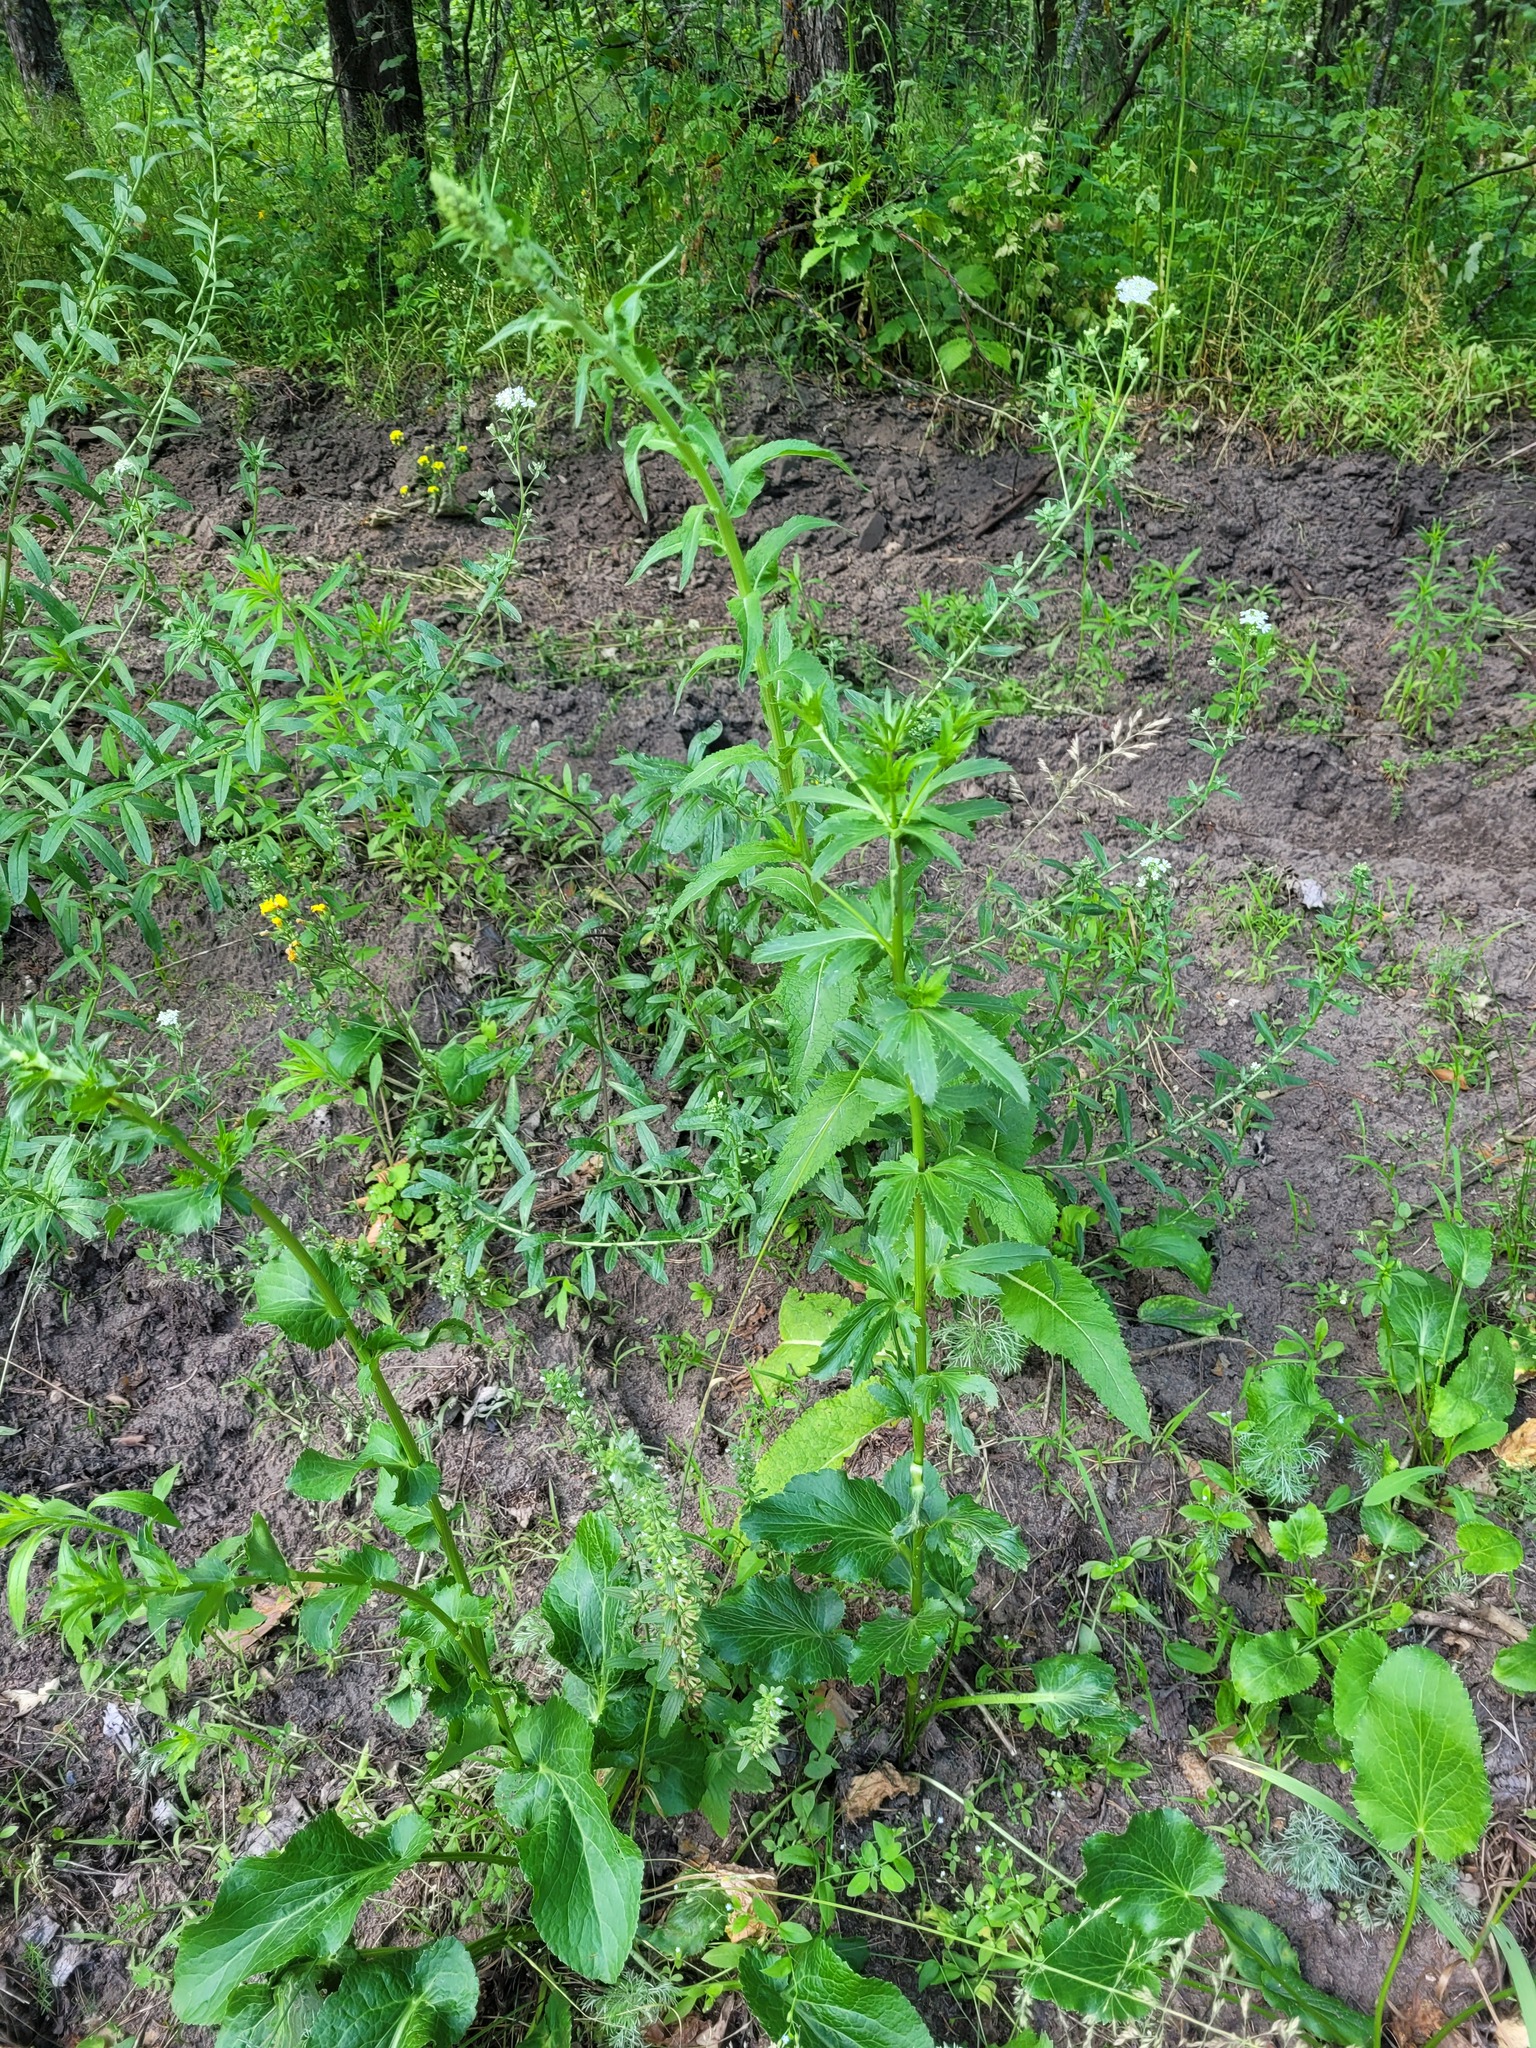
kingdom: Plantae
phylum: Tracheophyta
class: Magnoliopsida
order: Apiales
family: Apiaceae
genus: Eryngium
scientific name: Eryngium planum
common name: Blue eryngo
